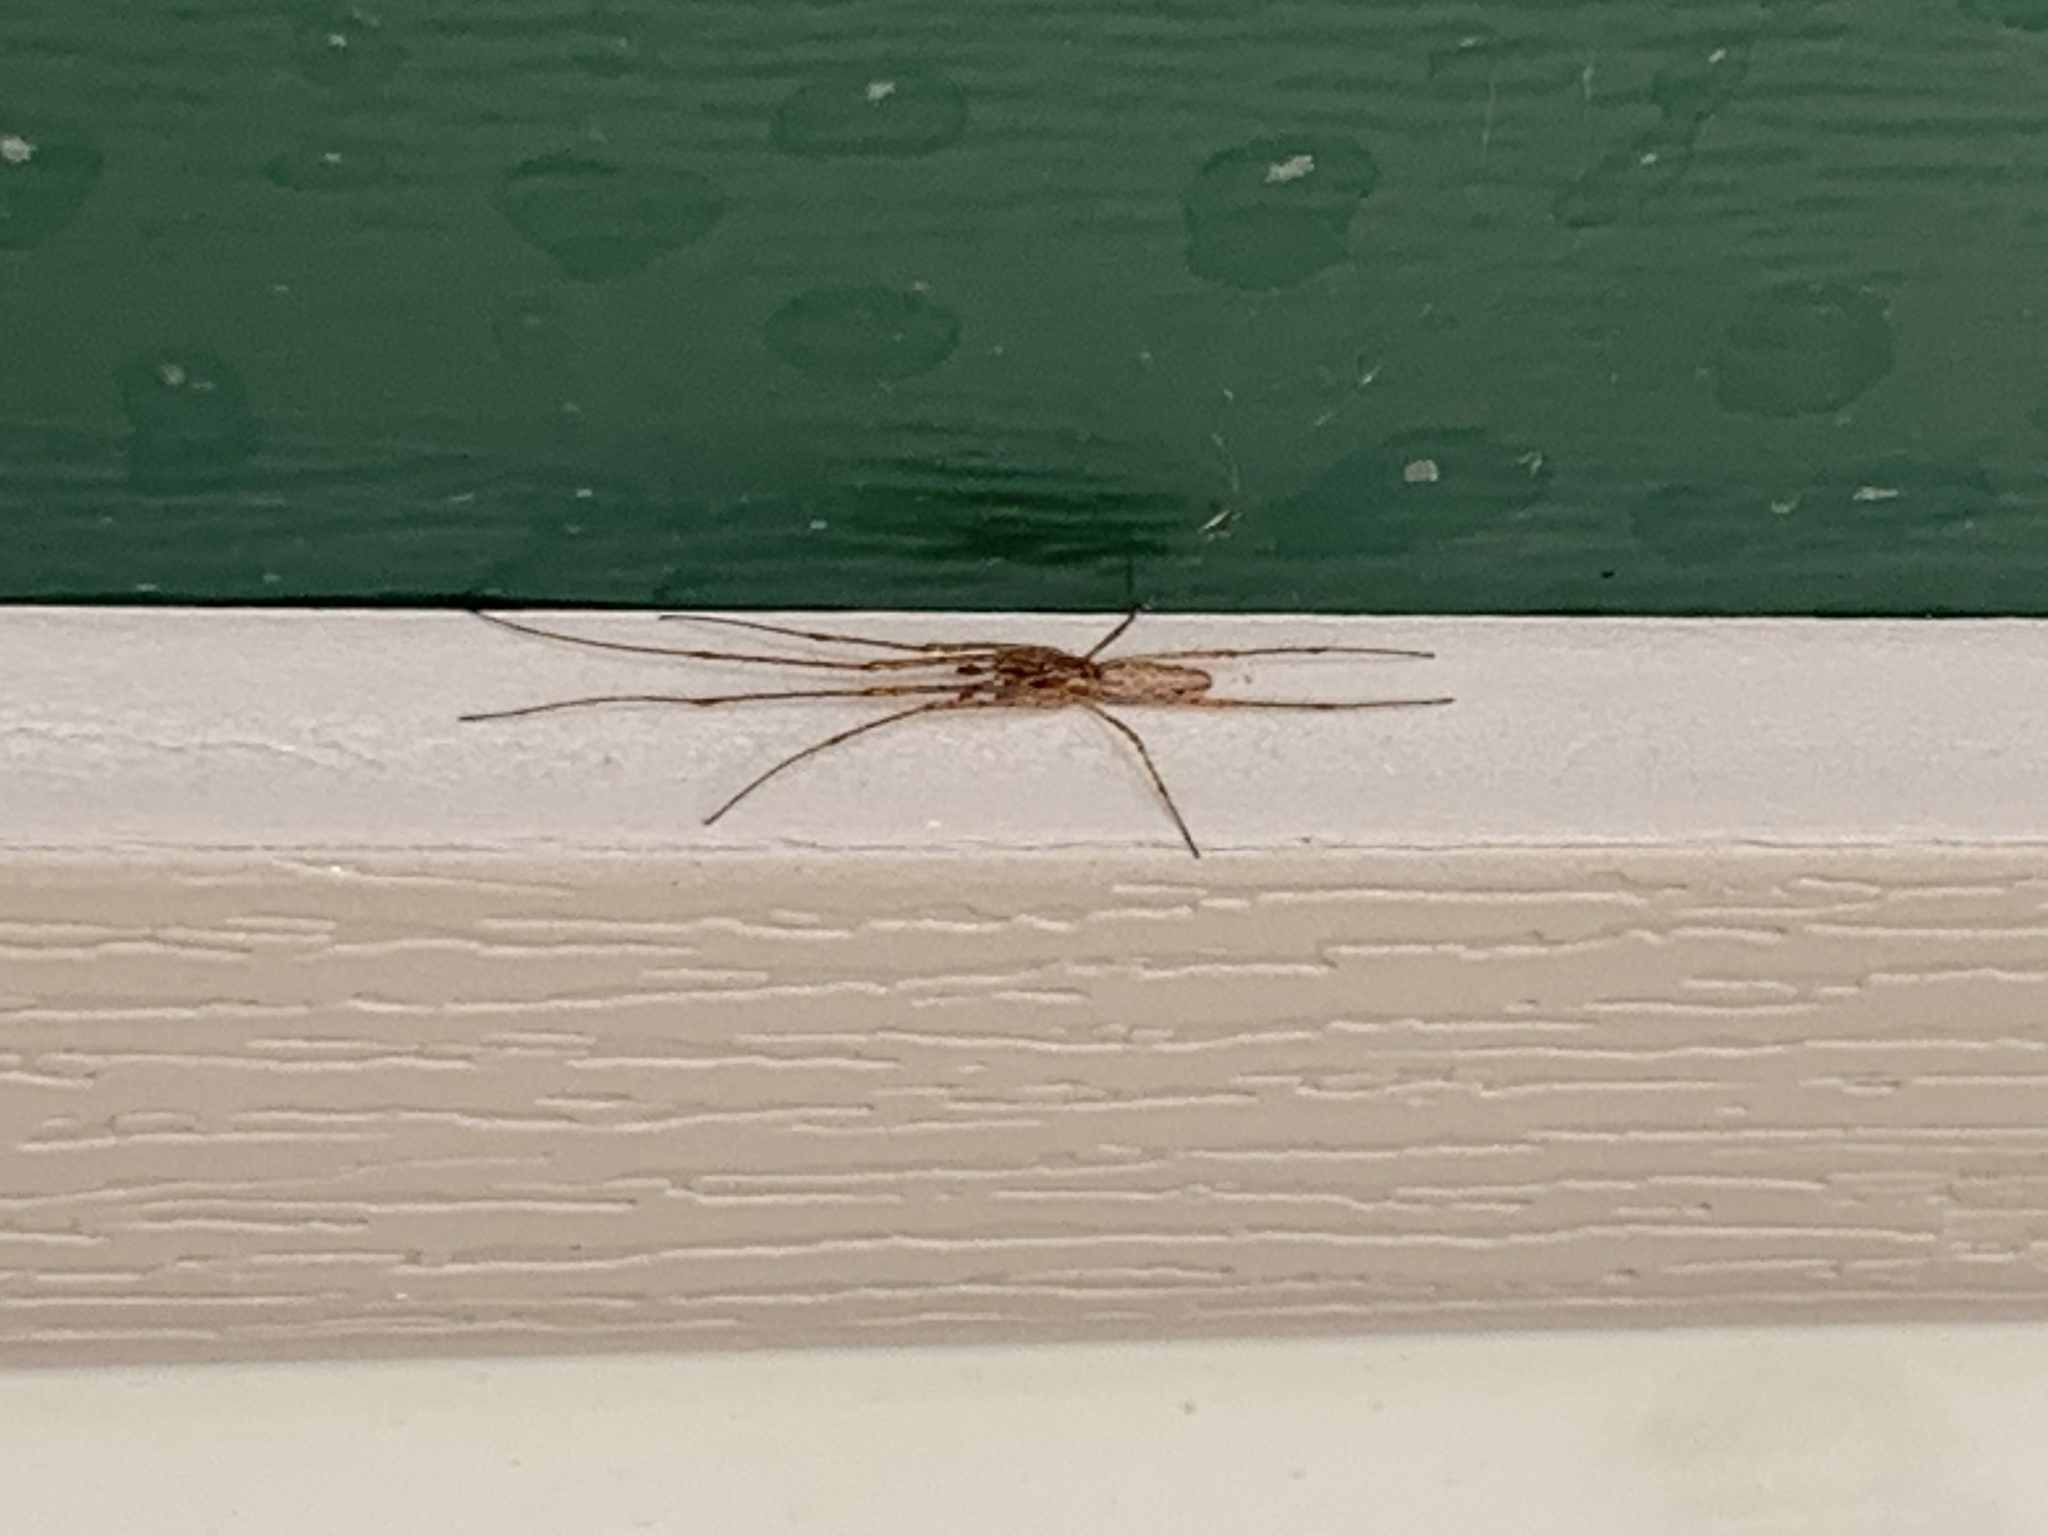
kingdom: Animalia
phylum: Arthropoda
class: Arachnida
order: Araneae
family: Tetragnathidae
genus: Tetragnatha
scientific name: Tetragnatha
